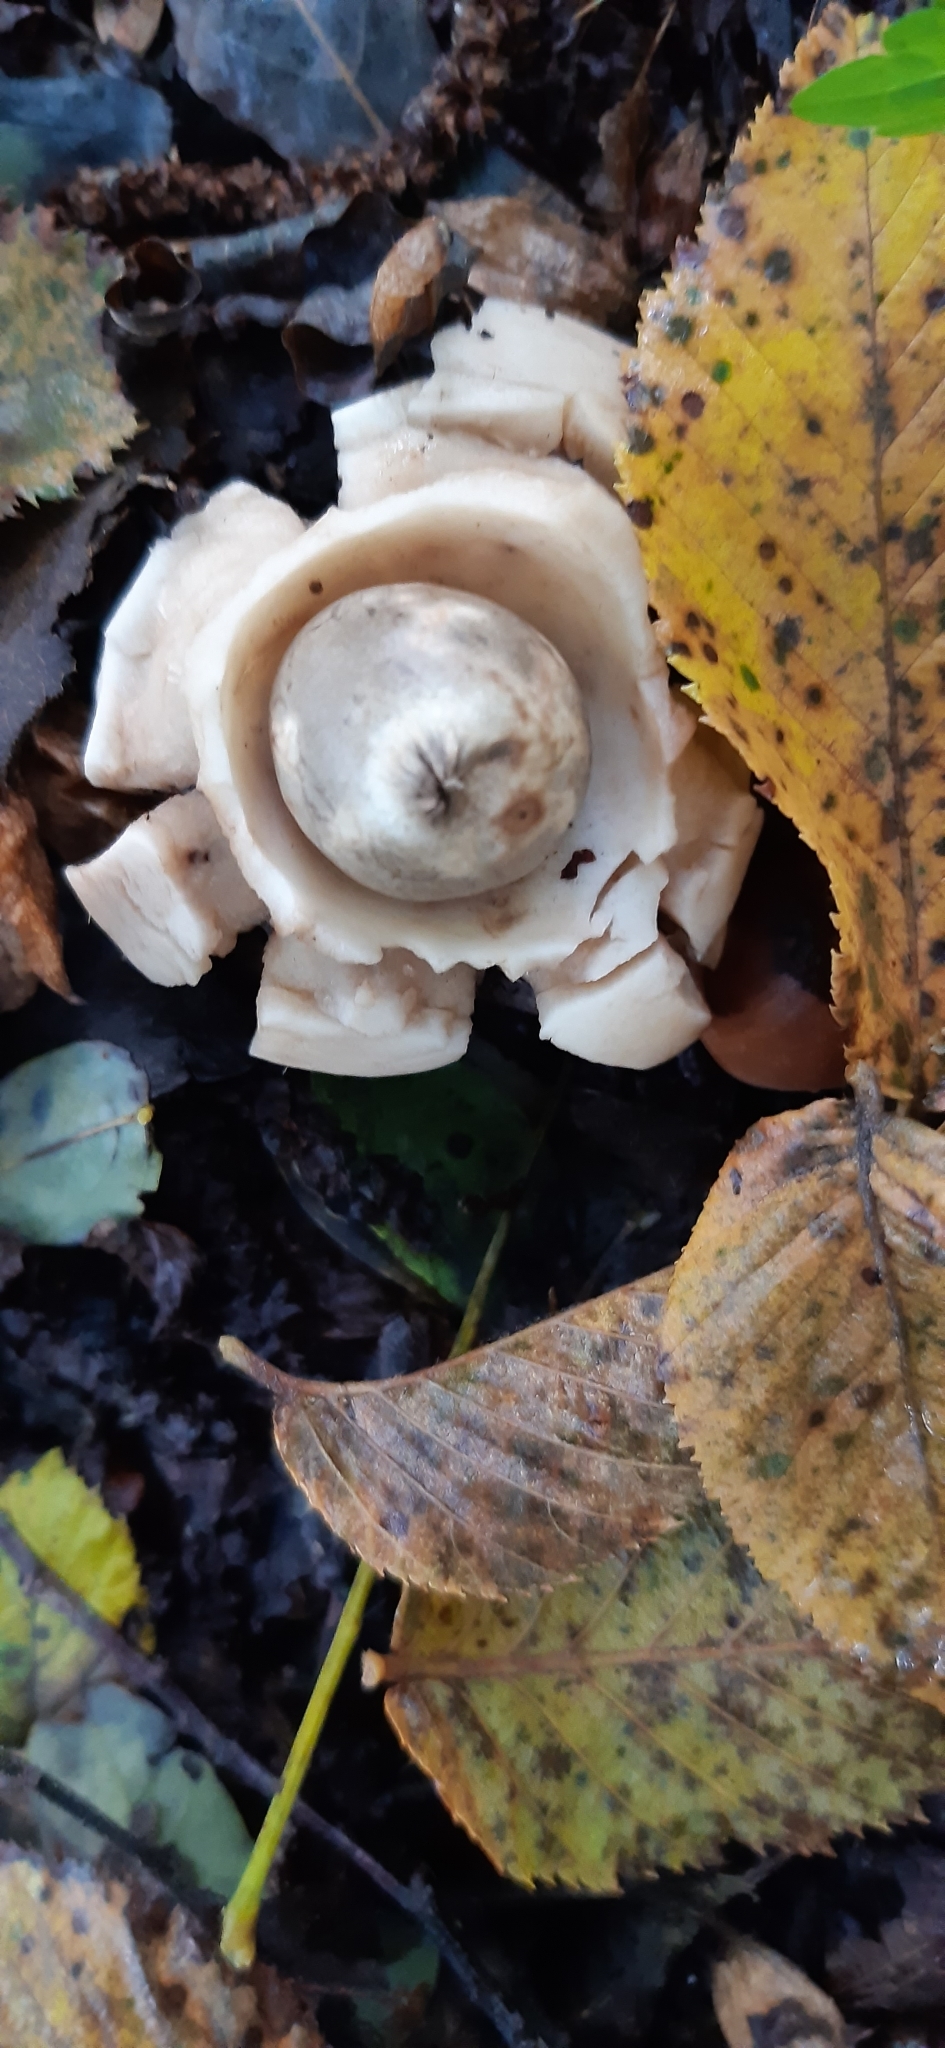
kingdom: Fungi
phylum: Basidiomycota
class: Agaricomycetes
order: Geastrales
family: Geastraceae
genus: Geastrum
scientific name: Geastrum michelianum
